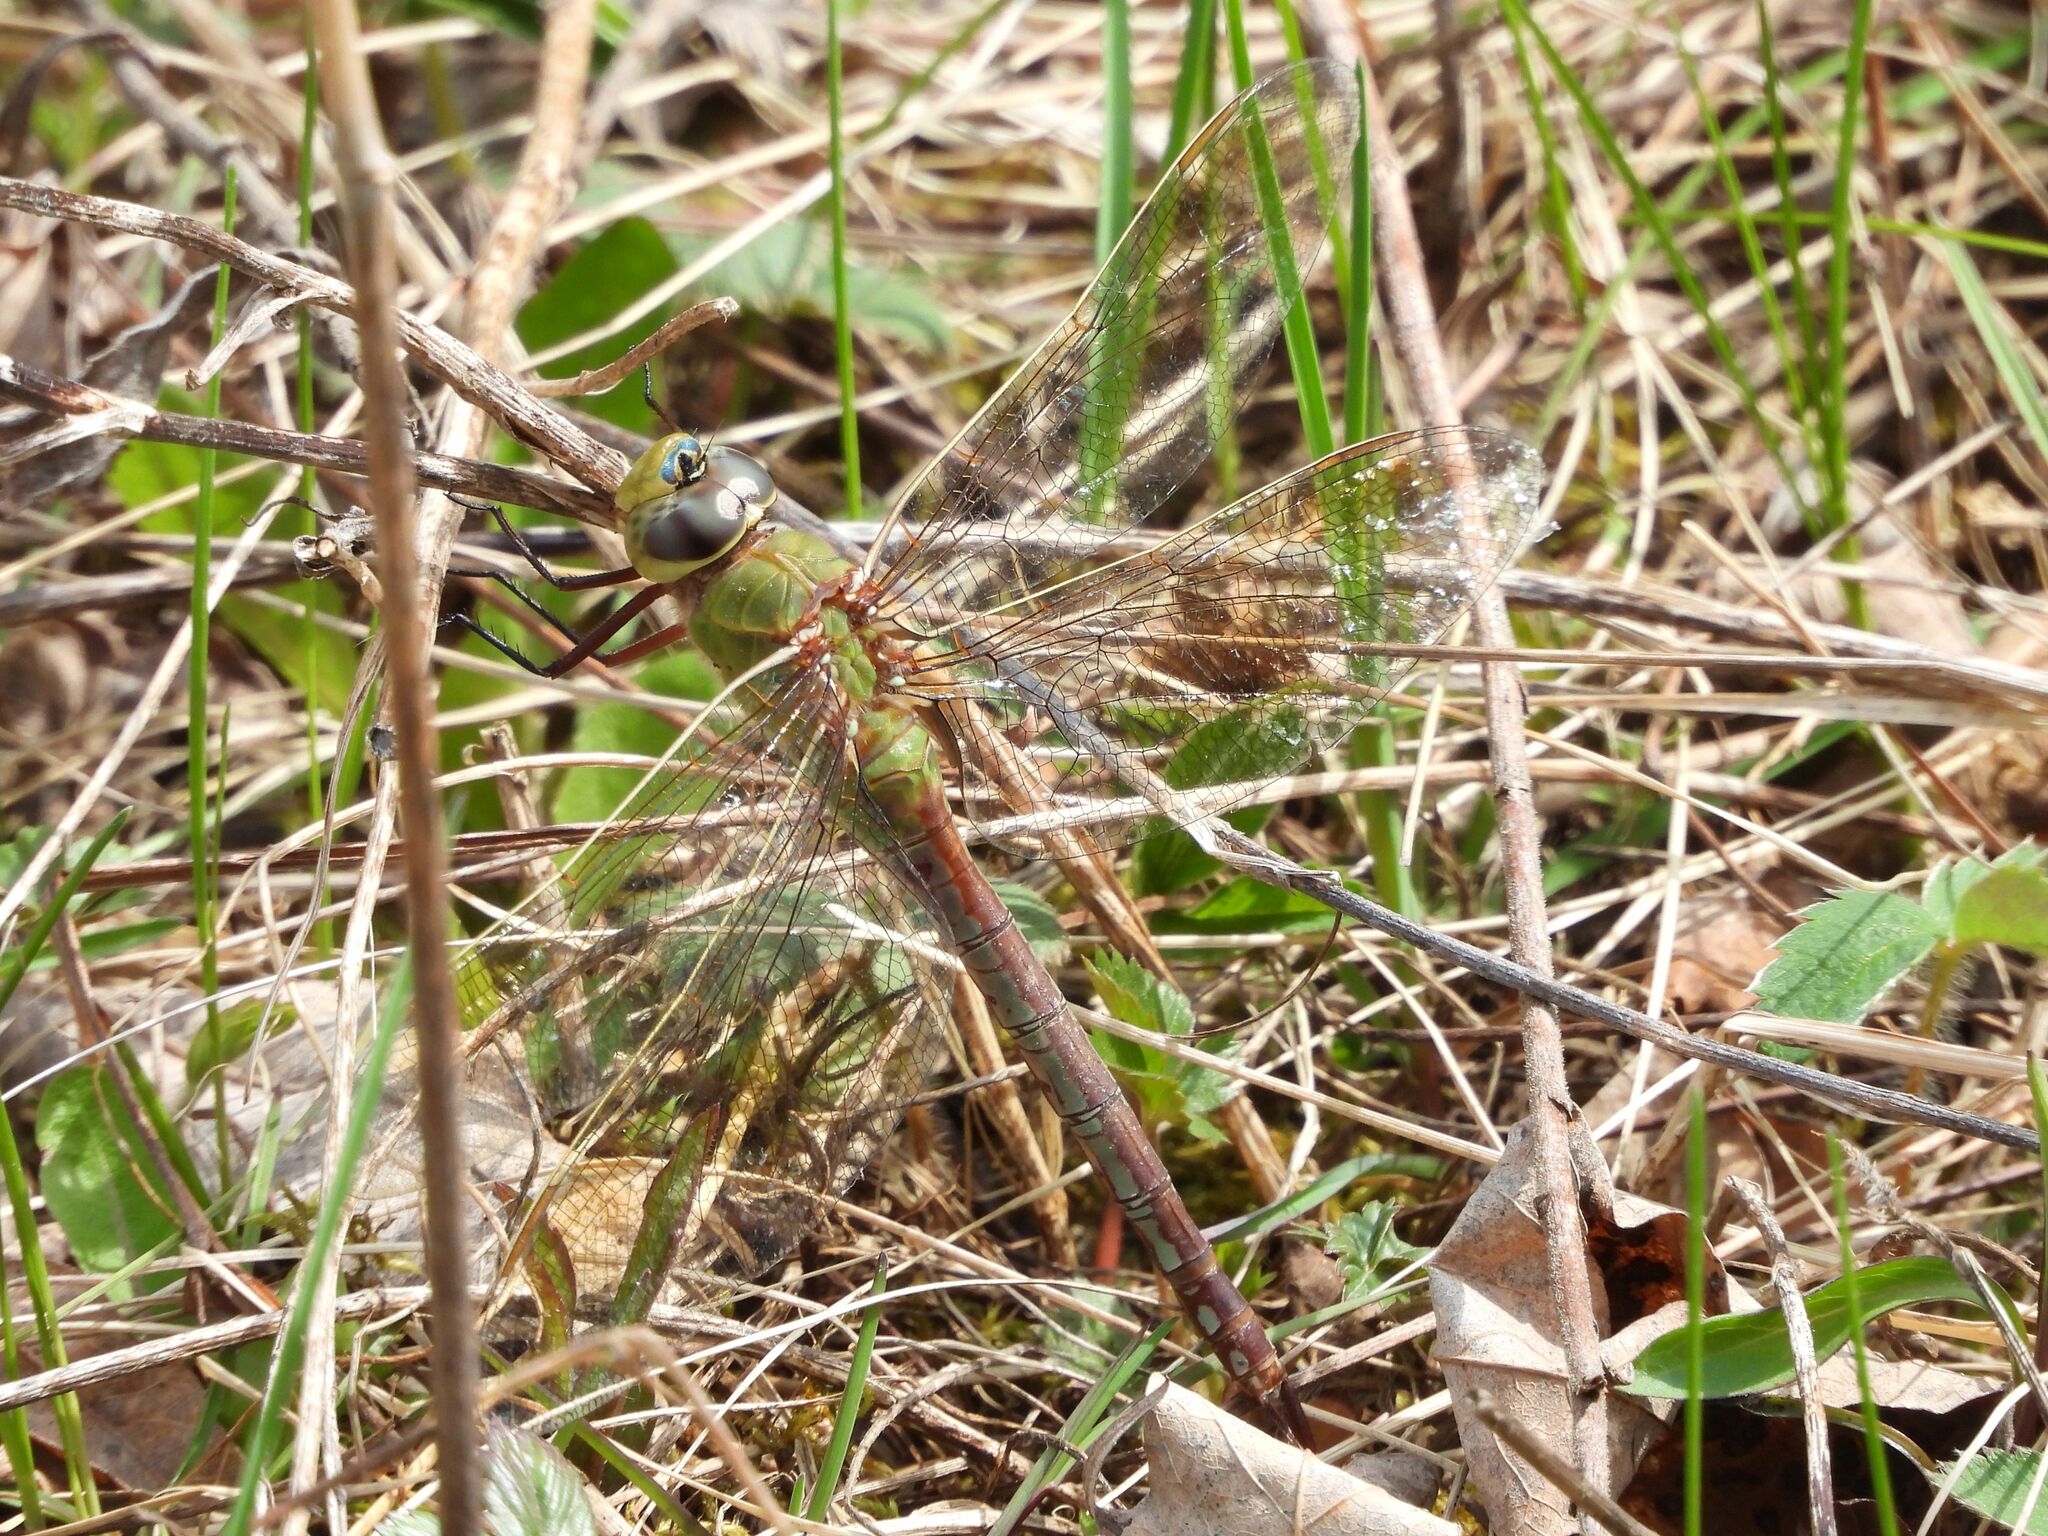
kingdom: Animalia
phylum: Arthropoda
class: Insecta
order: Odonata
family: Aeshnidae
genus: Anax
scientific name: Anax junius
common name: Common green darner
